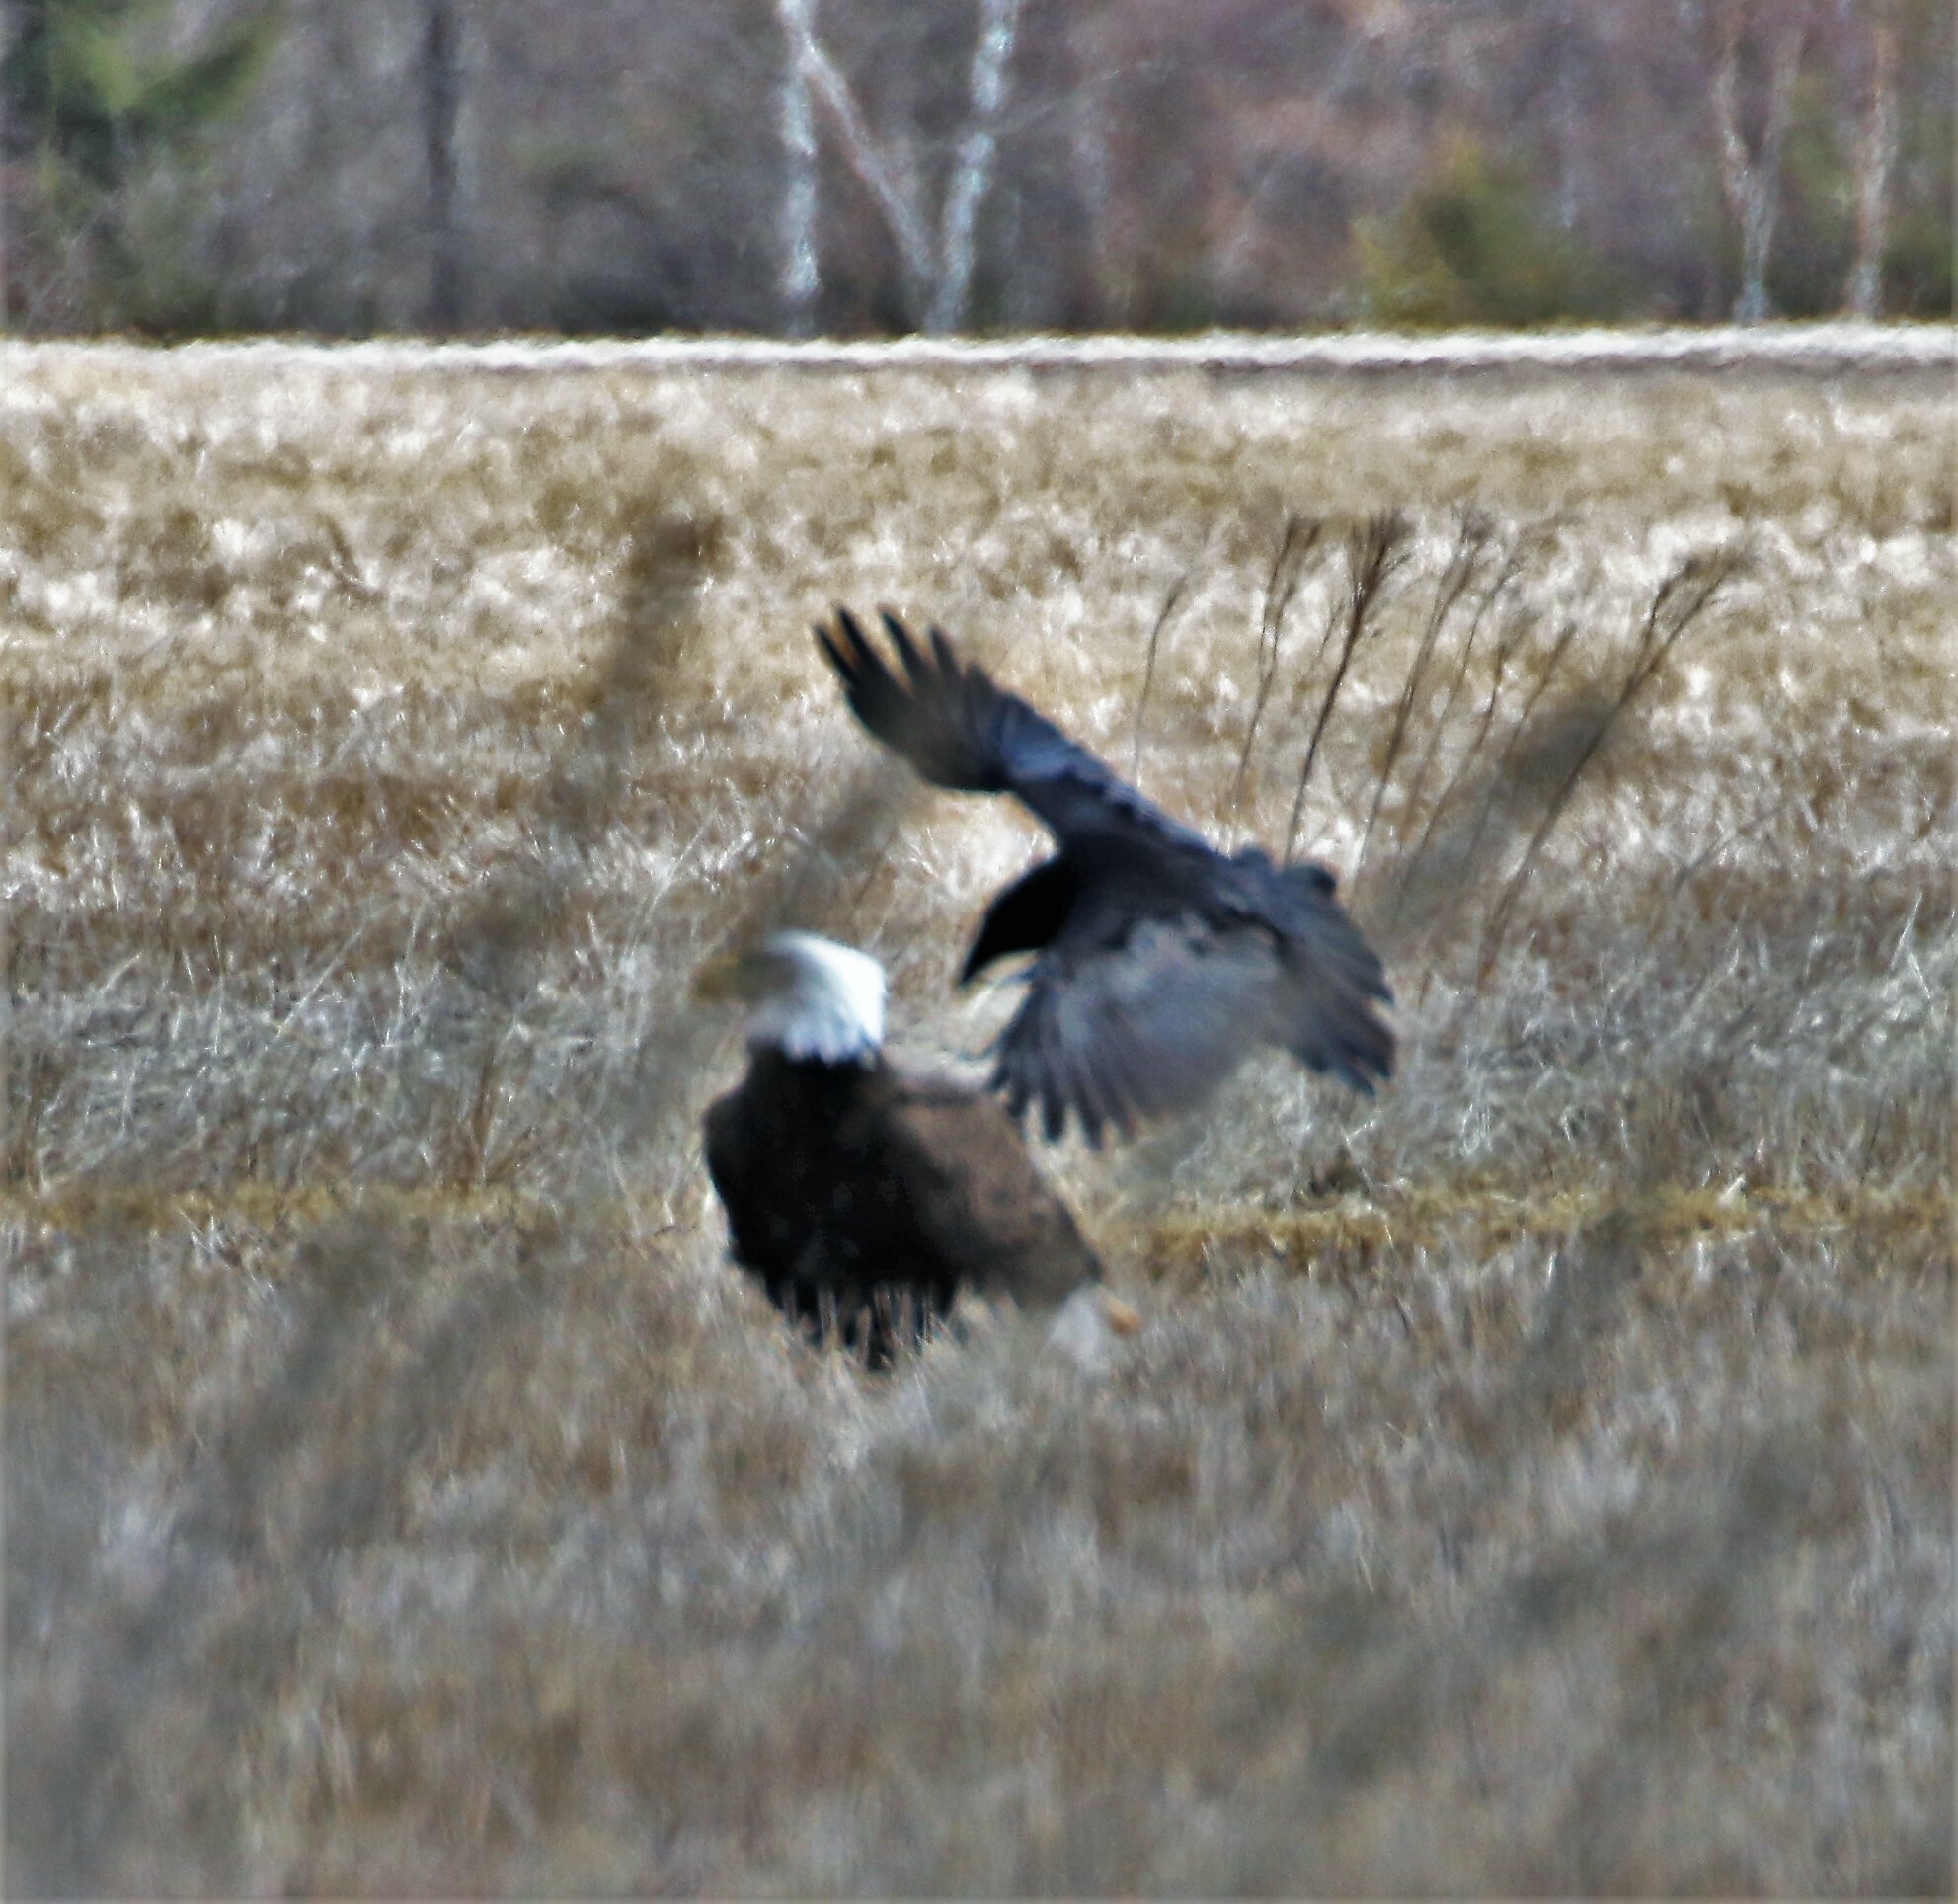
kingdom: Animalia
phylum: Chordata
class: Aves
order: Passeriformes
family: Corvidae
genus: Corvus
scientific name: Corvus corax
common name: Common raven
